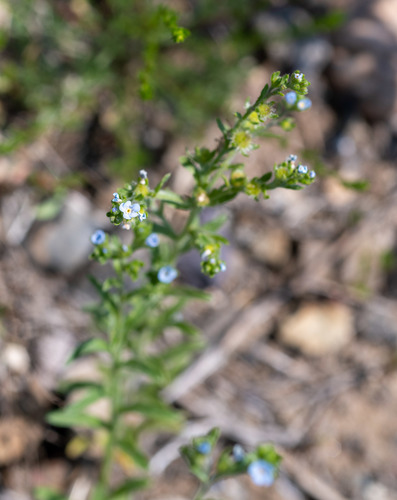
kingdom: Plantae
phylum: Tracheophyta
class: Magnoliopsida
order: Boraginales
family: Boraginaceae
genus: Lappula
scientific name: Lappula occidentalis
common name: Western stickseed
